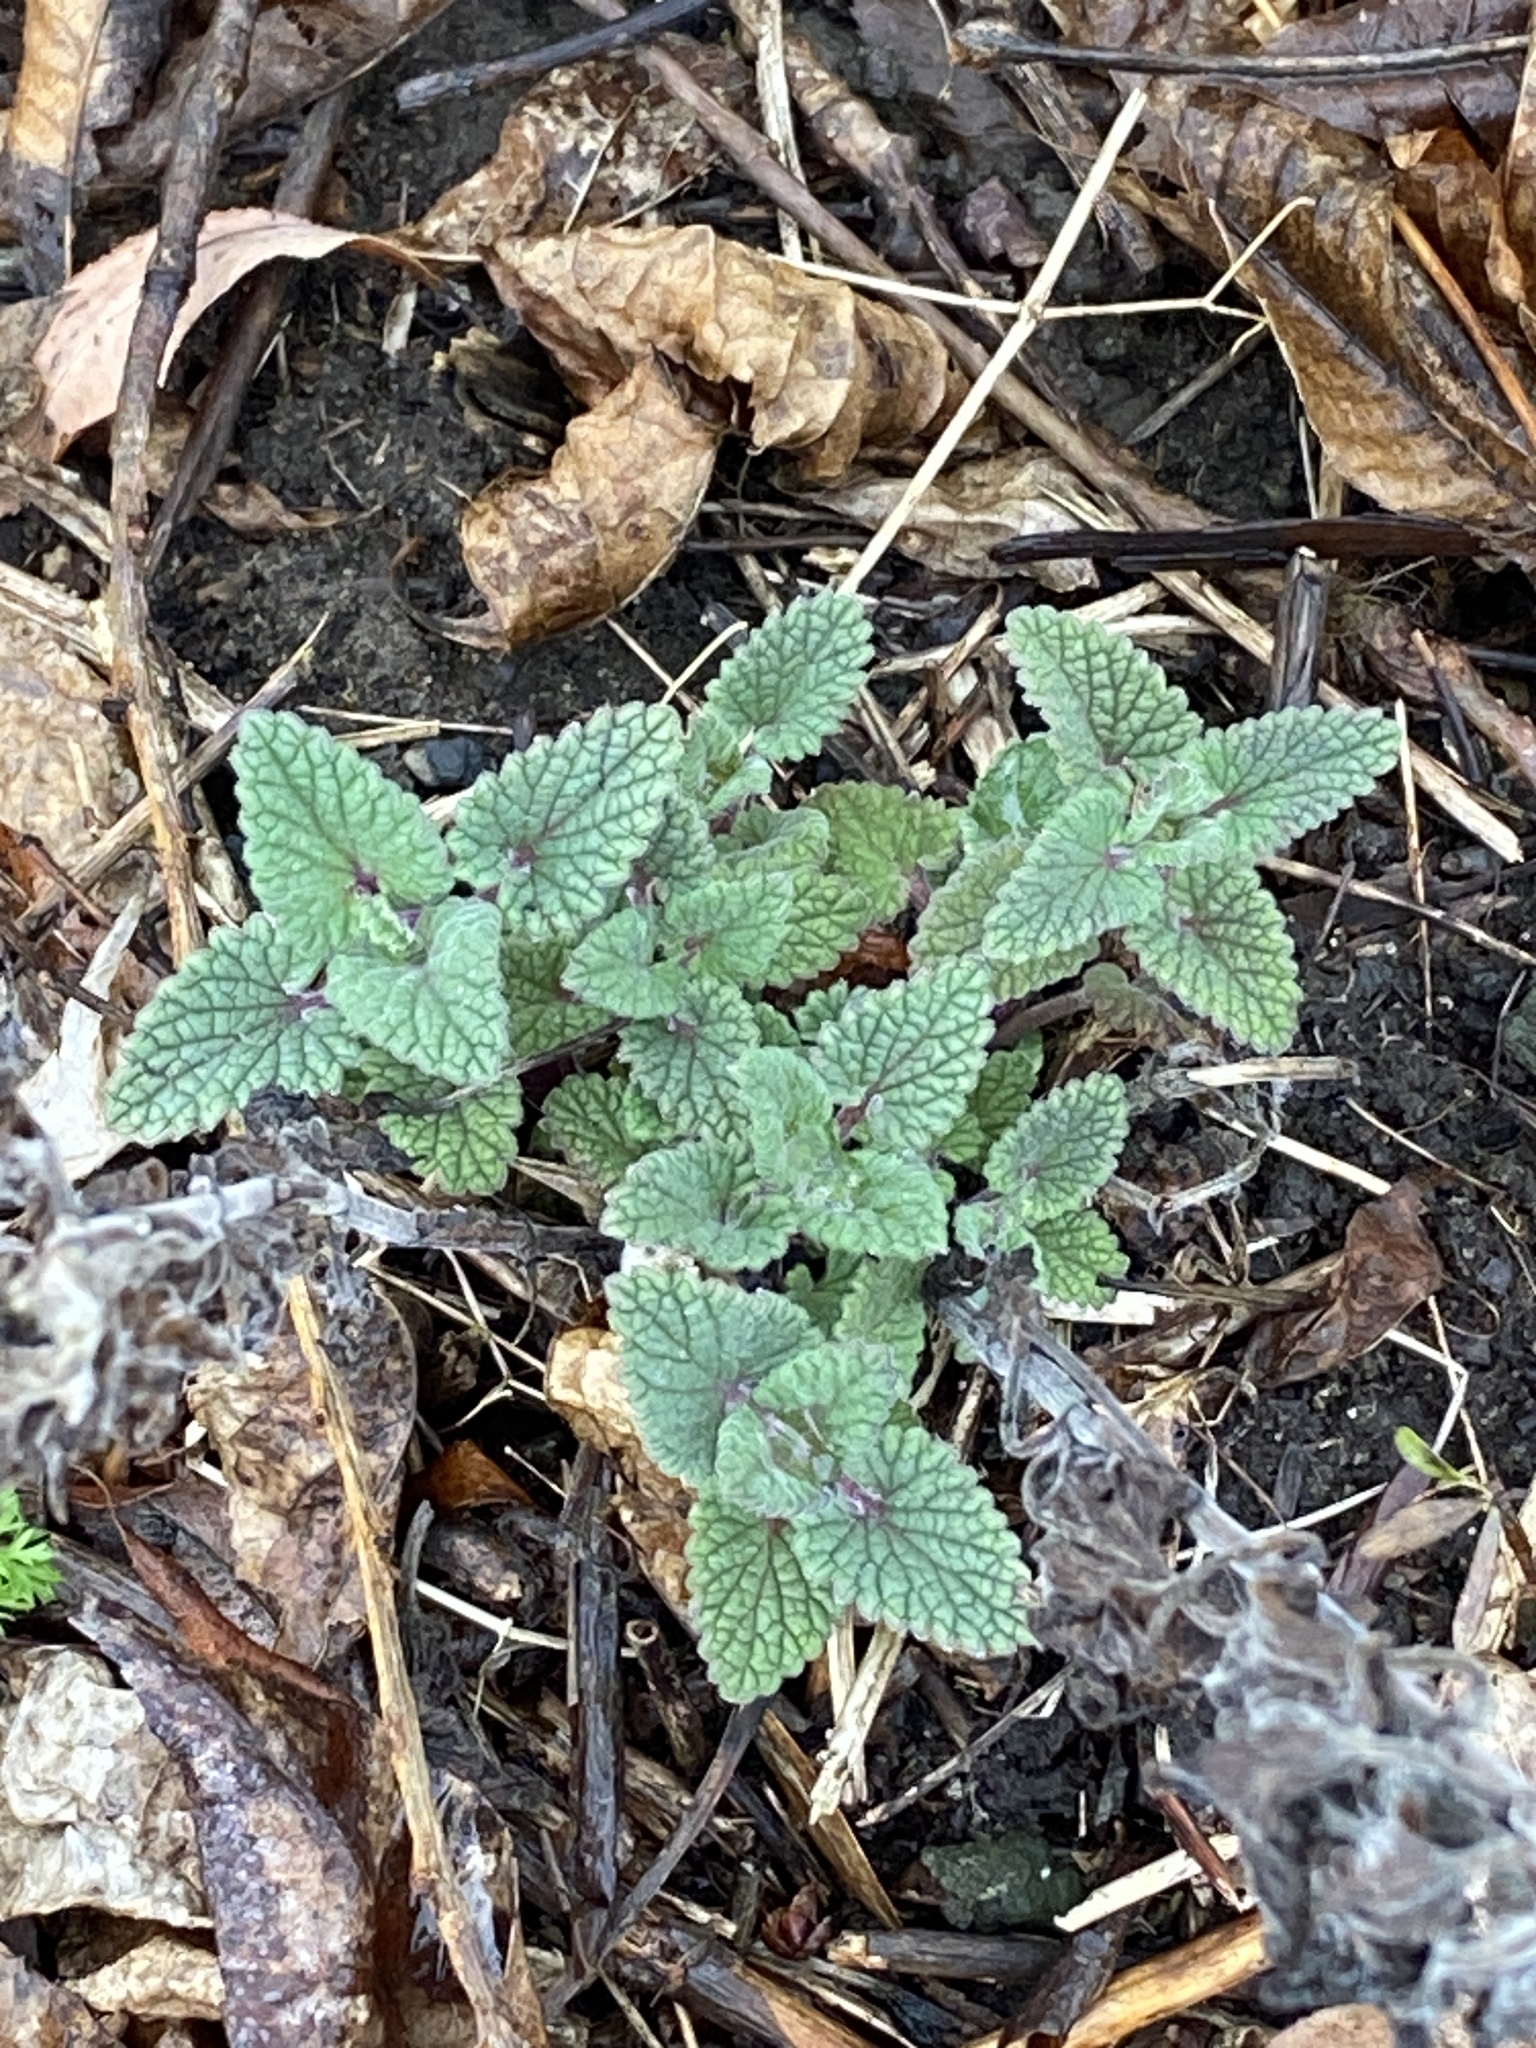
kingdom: Plantae
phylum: Tracheophyta
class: Magnoliopsida
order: Lamiales
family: Lamiaceae
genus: Nepeta
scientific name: Nepeta cataria
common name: Catnip
